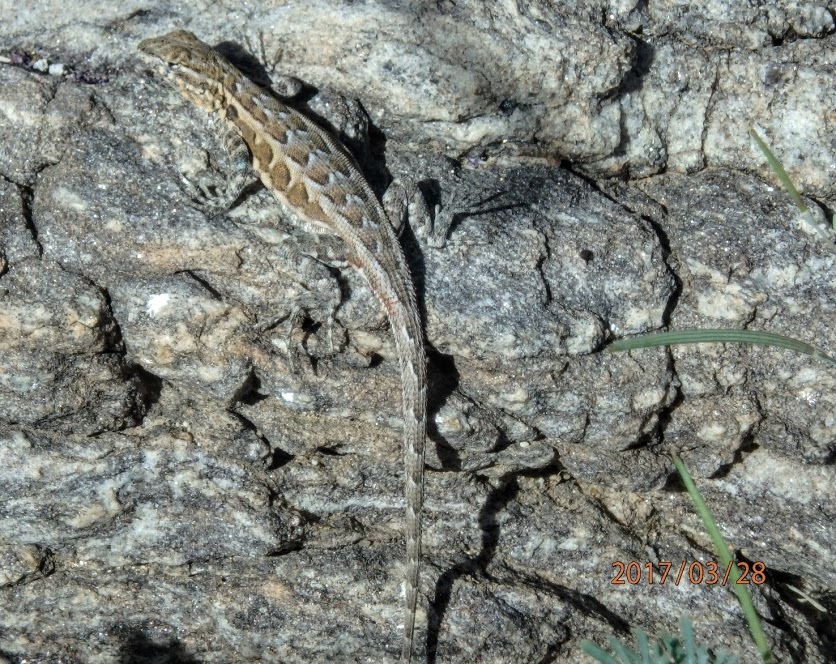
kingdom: Animalia
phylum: Chordata
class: Squamata
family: Phrynosomatidae
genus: Uta
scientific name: Uta stansburiana
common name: Side-blotched lizard
